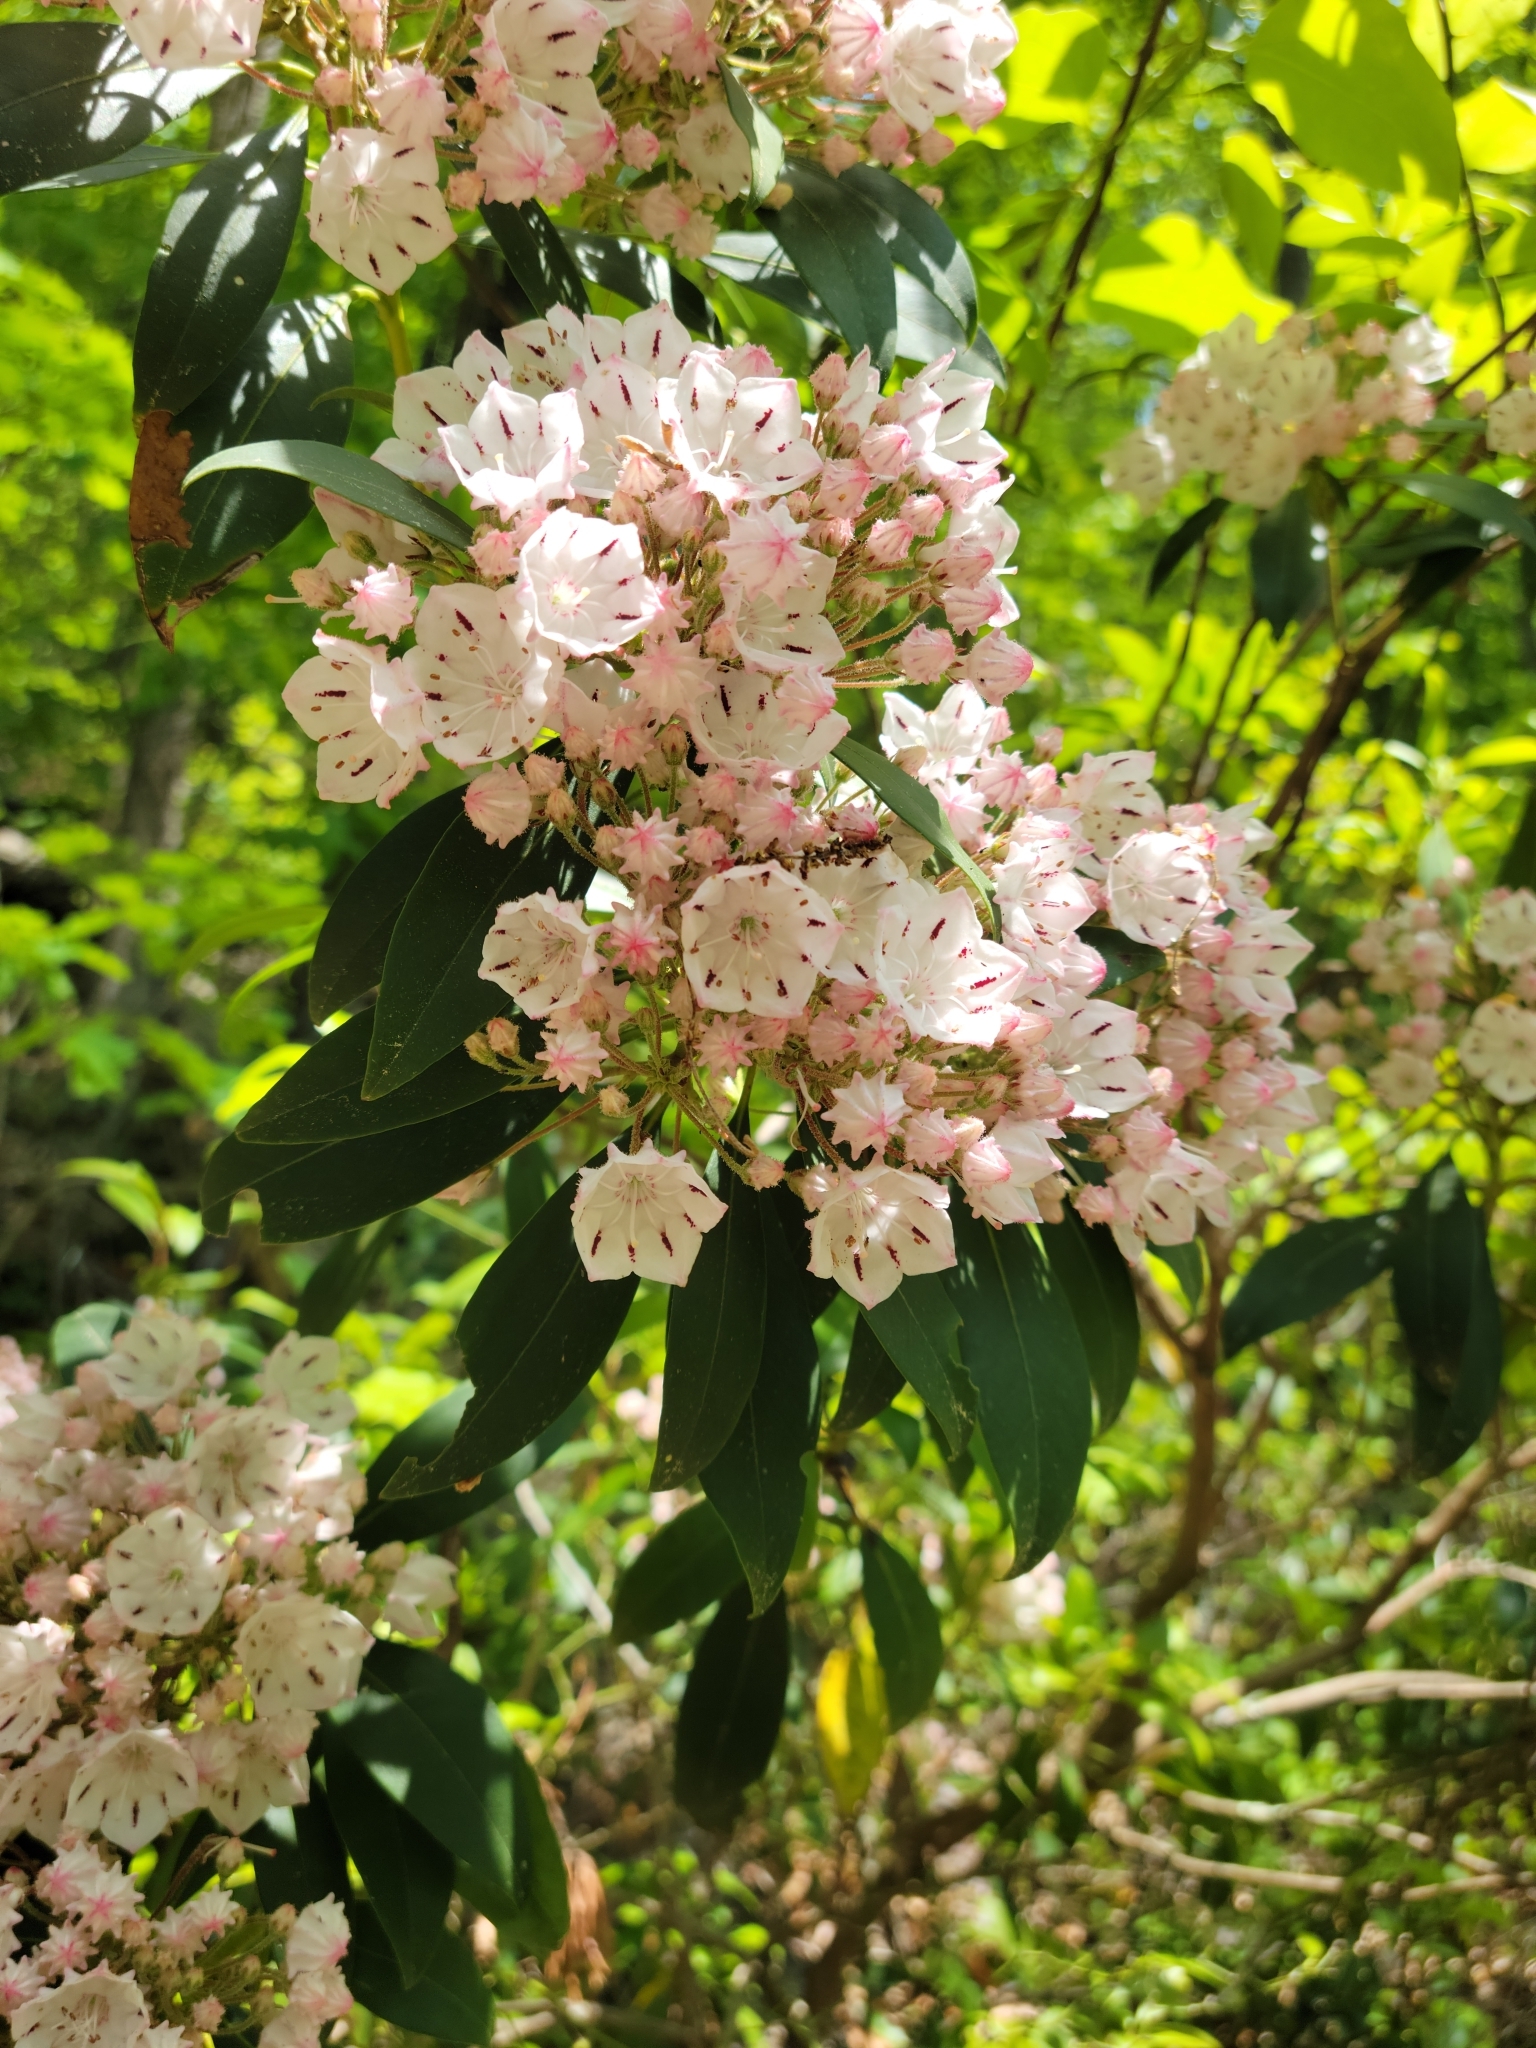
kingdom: Plantae
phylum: Tracheophyta
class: Magnoliopsida
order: Ericales
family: Ericaceae
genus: Kalmia
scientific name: Kalmia latifolia
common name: Mountain-laurel
